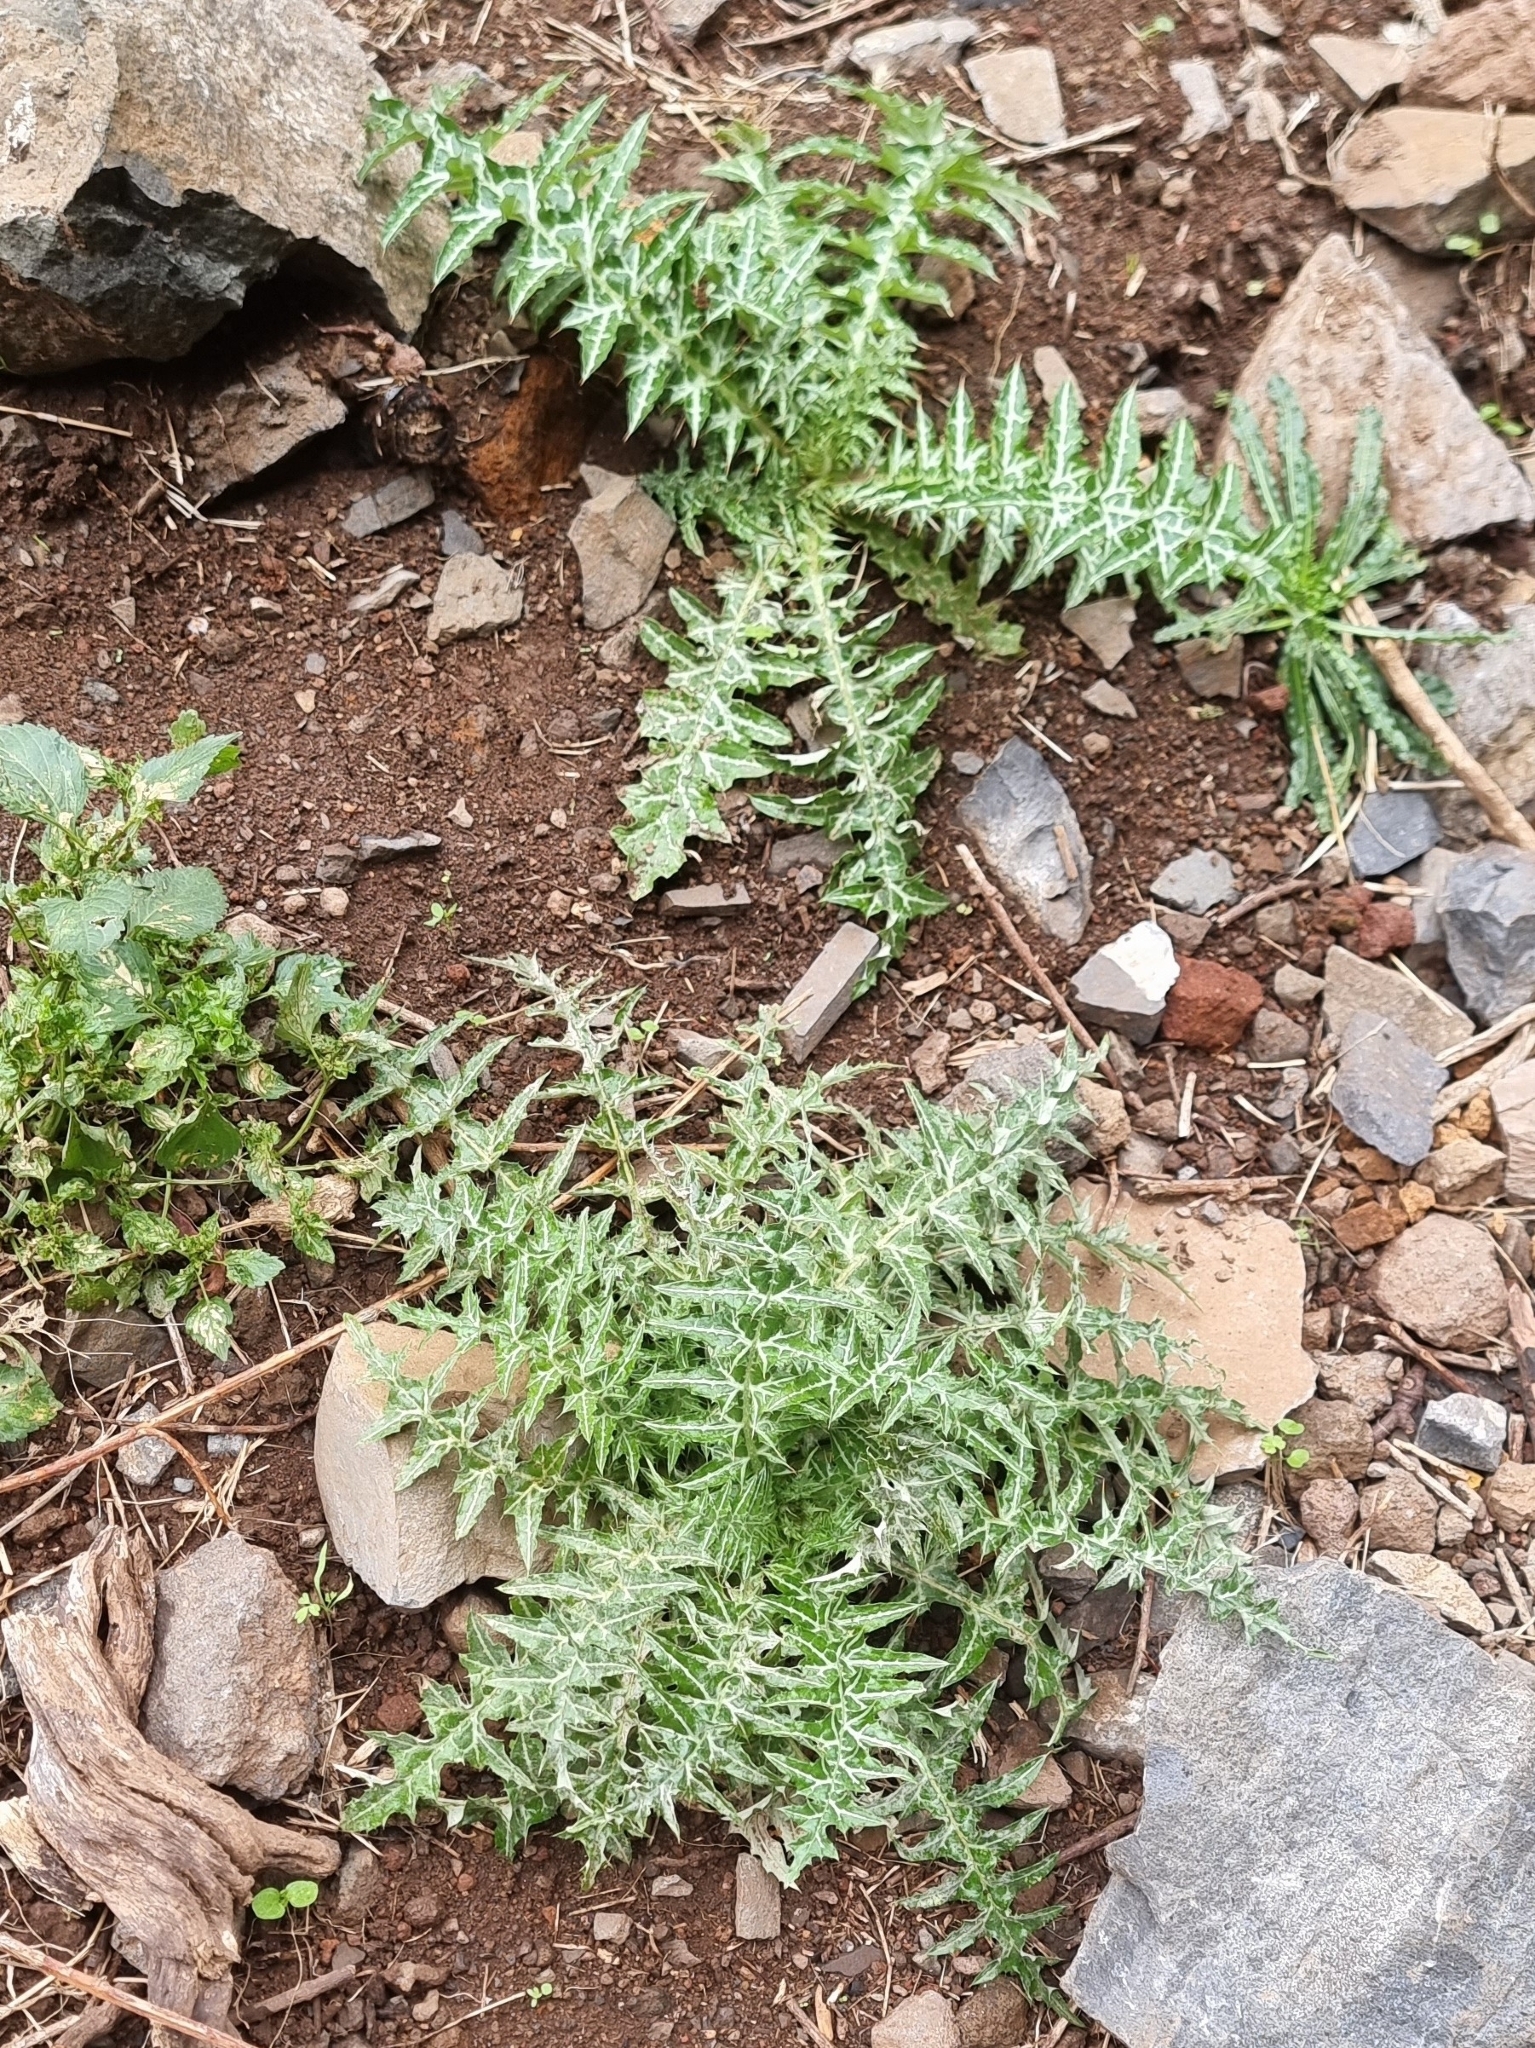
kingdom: Plantae
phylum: Tracheophyta
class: Magnoliopsida
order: Asterales
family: Asteraceae
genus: Galactites
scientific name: Galactites tomentosa
